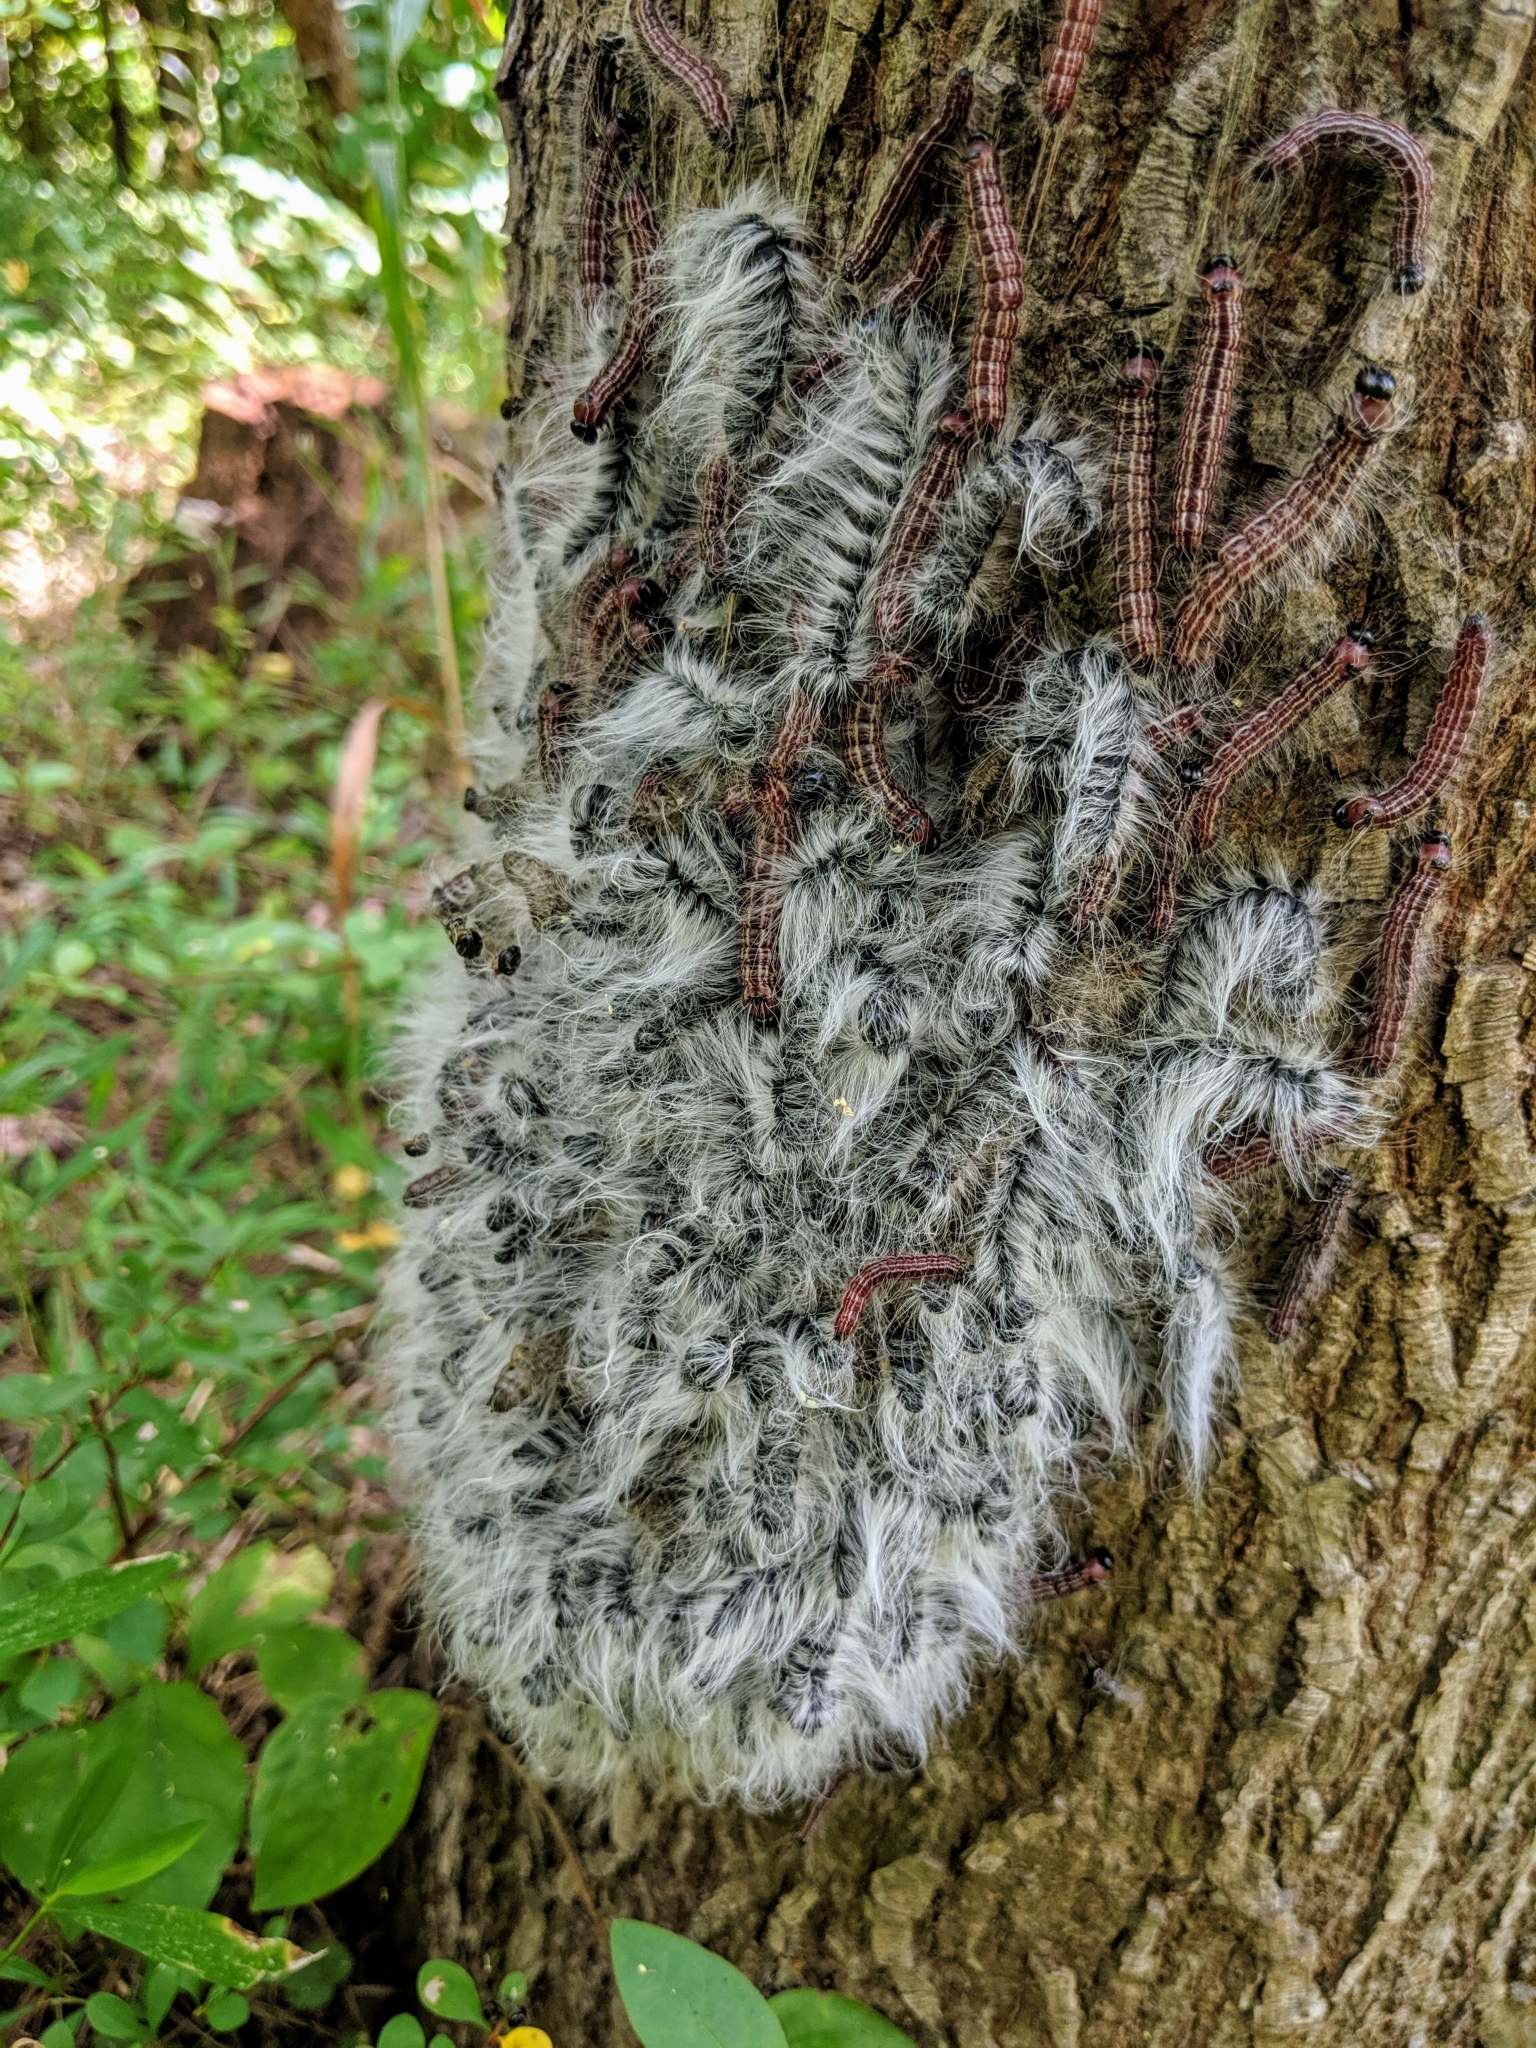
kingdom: Animalia
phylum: Arthropoda
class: Insecta
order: Lepidoptera
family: Notodontidae
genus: Datana
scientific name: Datana integerrima
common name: Walnut caterpillar
